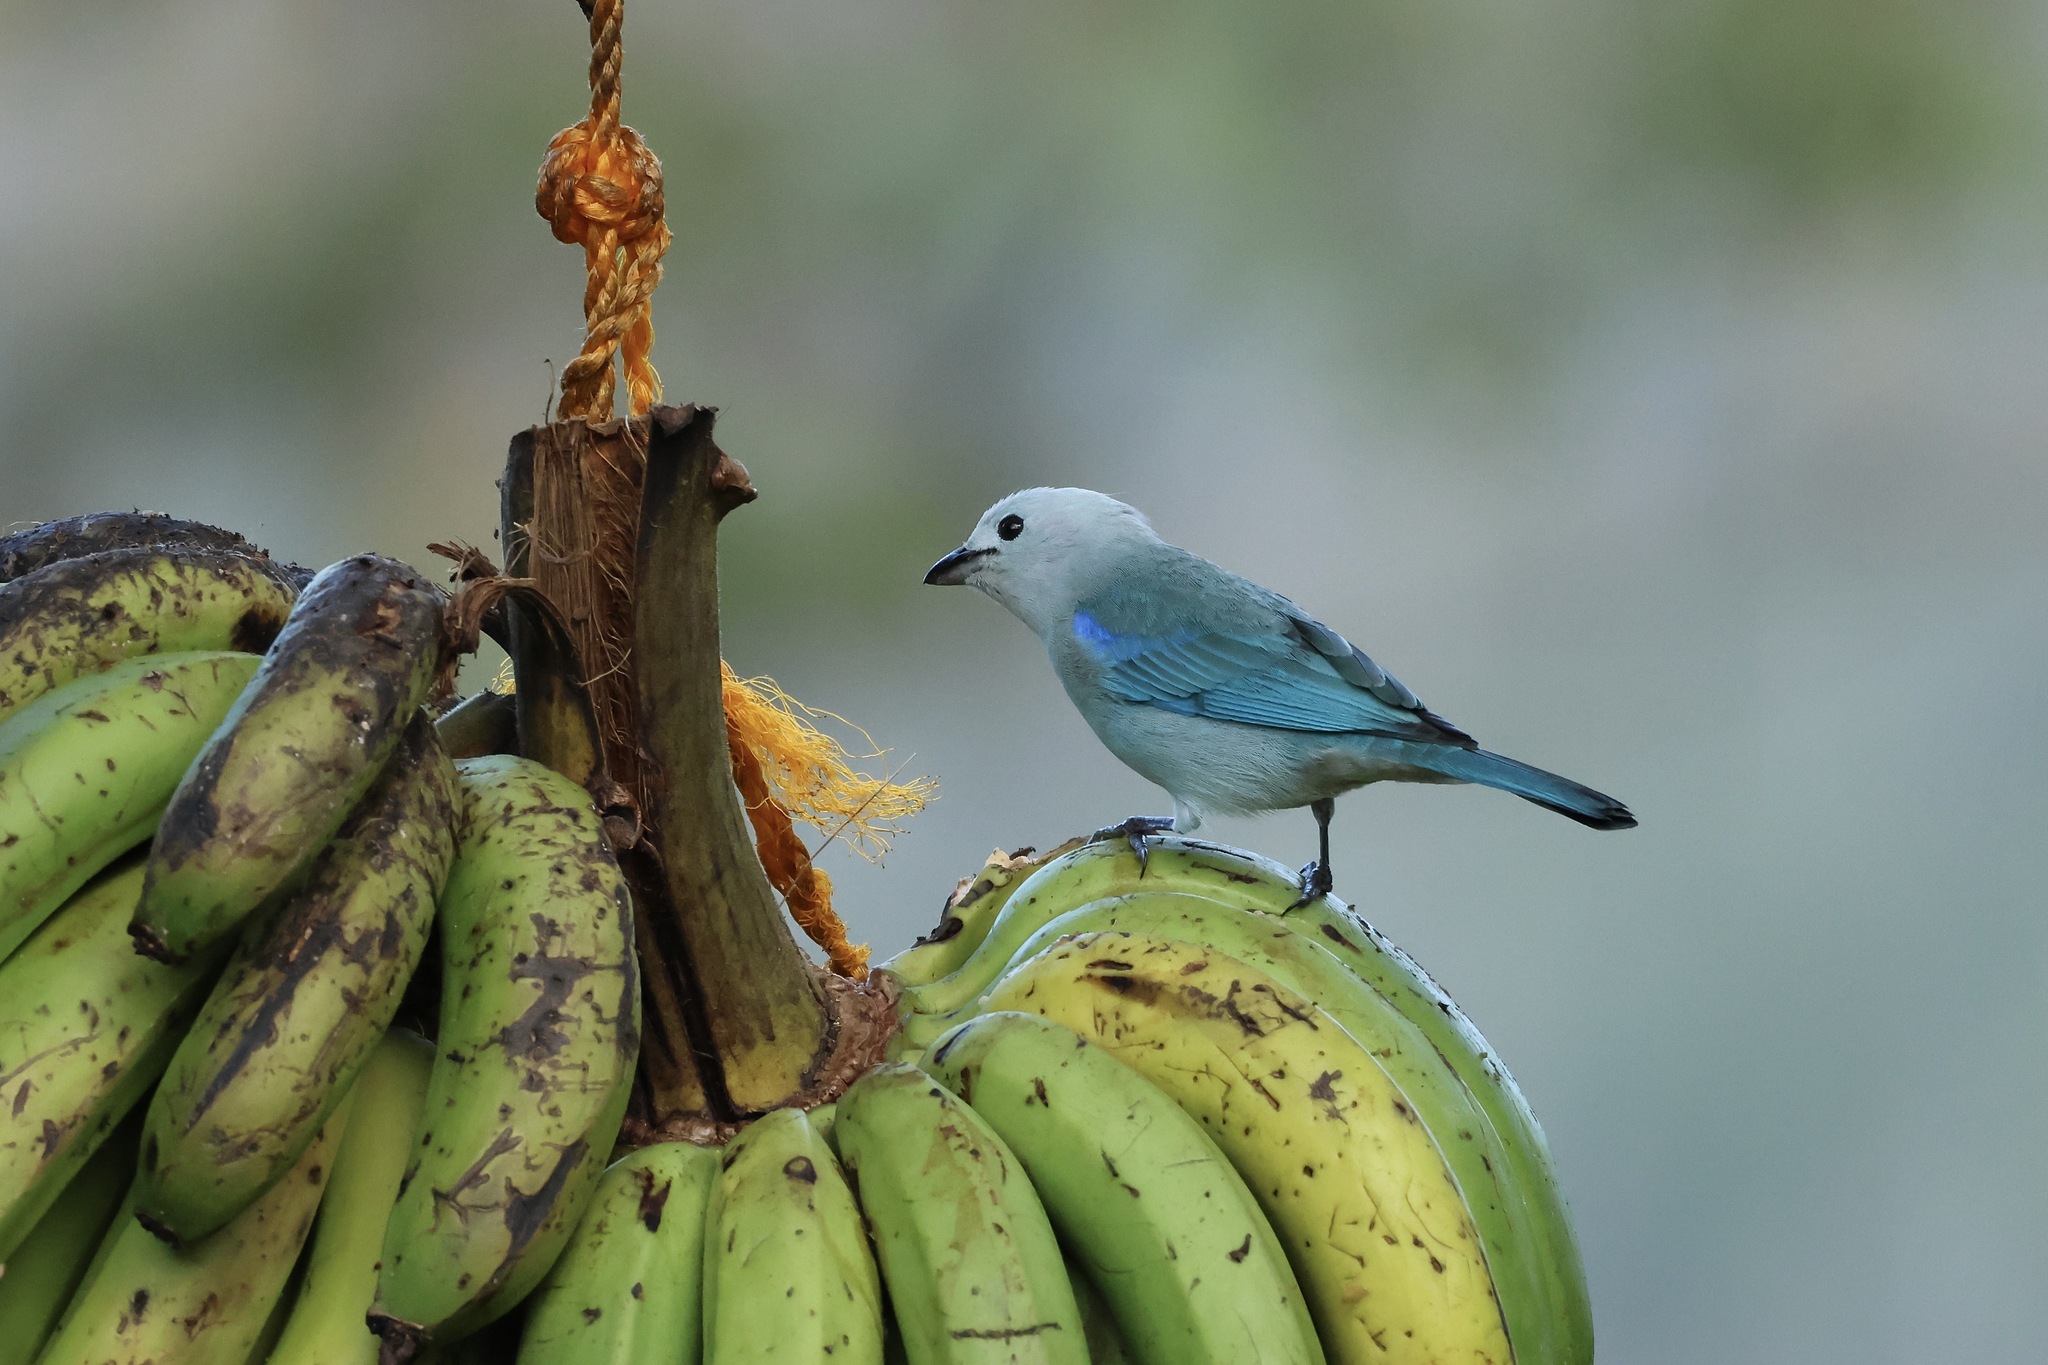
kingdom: Animalia
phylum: Chordata
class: Aves
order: Passeriformes
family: Thraupidae
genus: Thraupis
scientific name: Thraupis episcopus
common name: Blue-grey tanager
